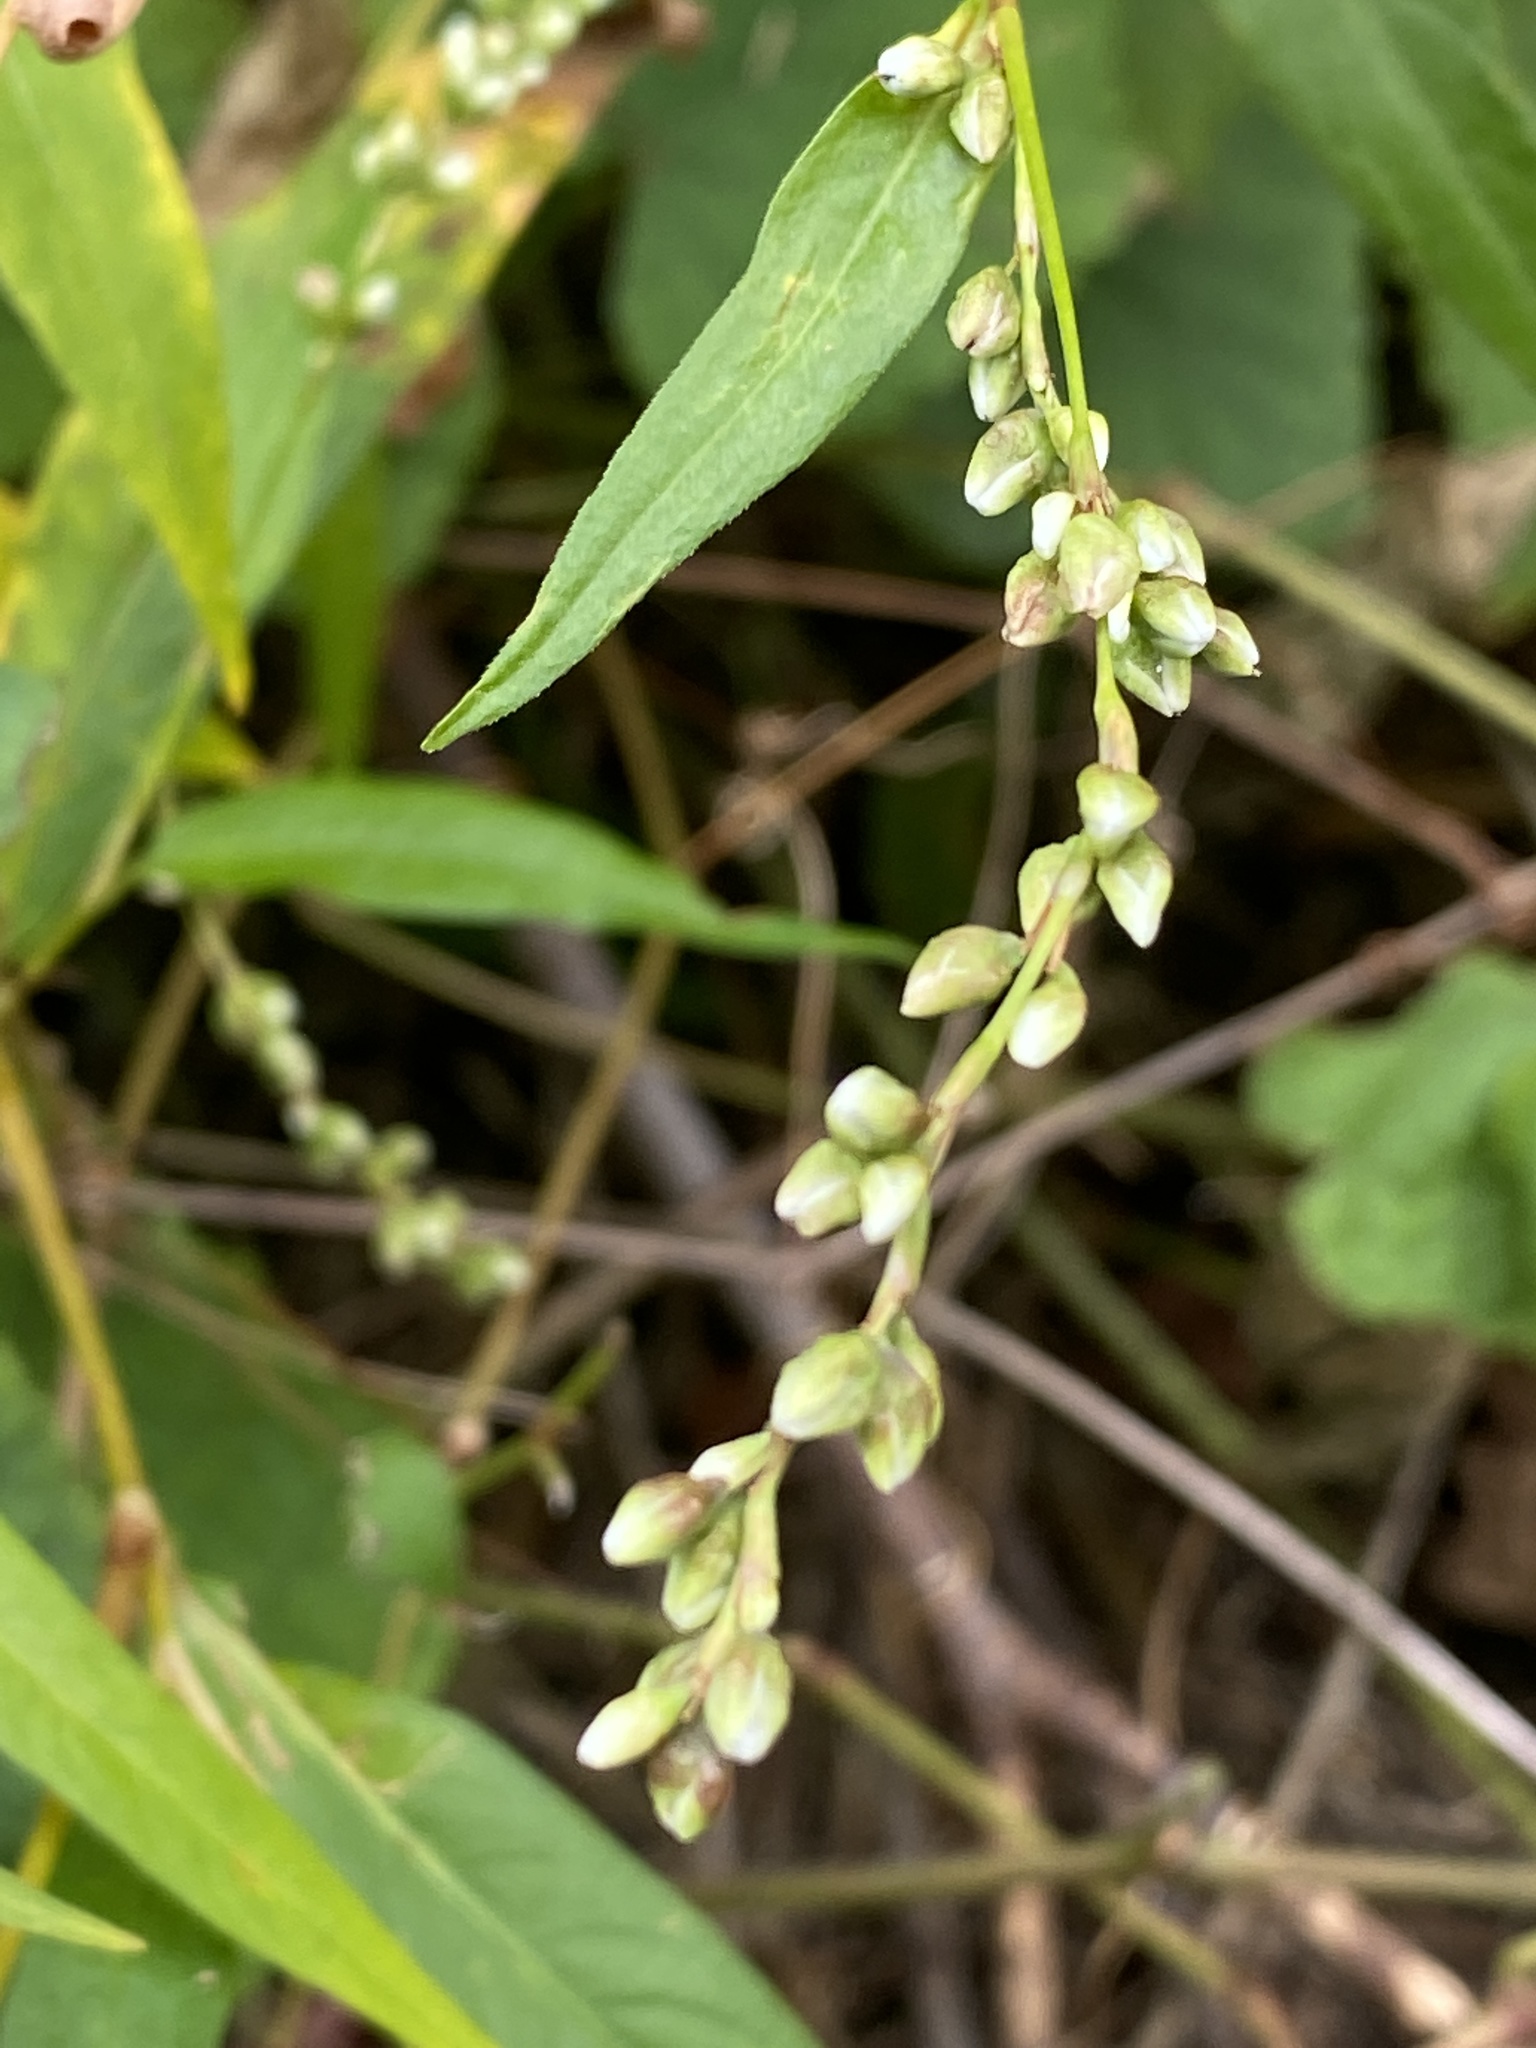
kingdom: Plantae
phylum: Tracheophyta
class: Magnoliopsida
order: Caryophyllales
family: Polygonaceae
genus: Persicaria
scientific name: Persicaria punctata
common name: Dotted smartweed
